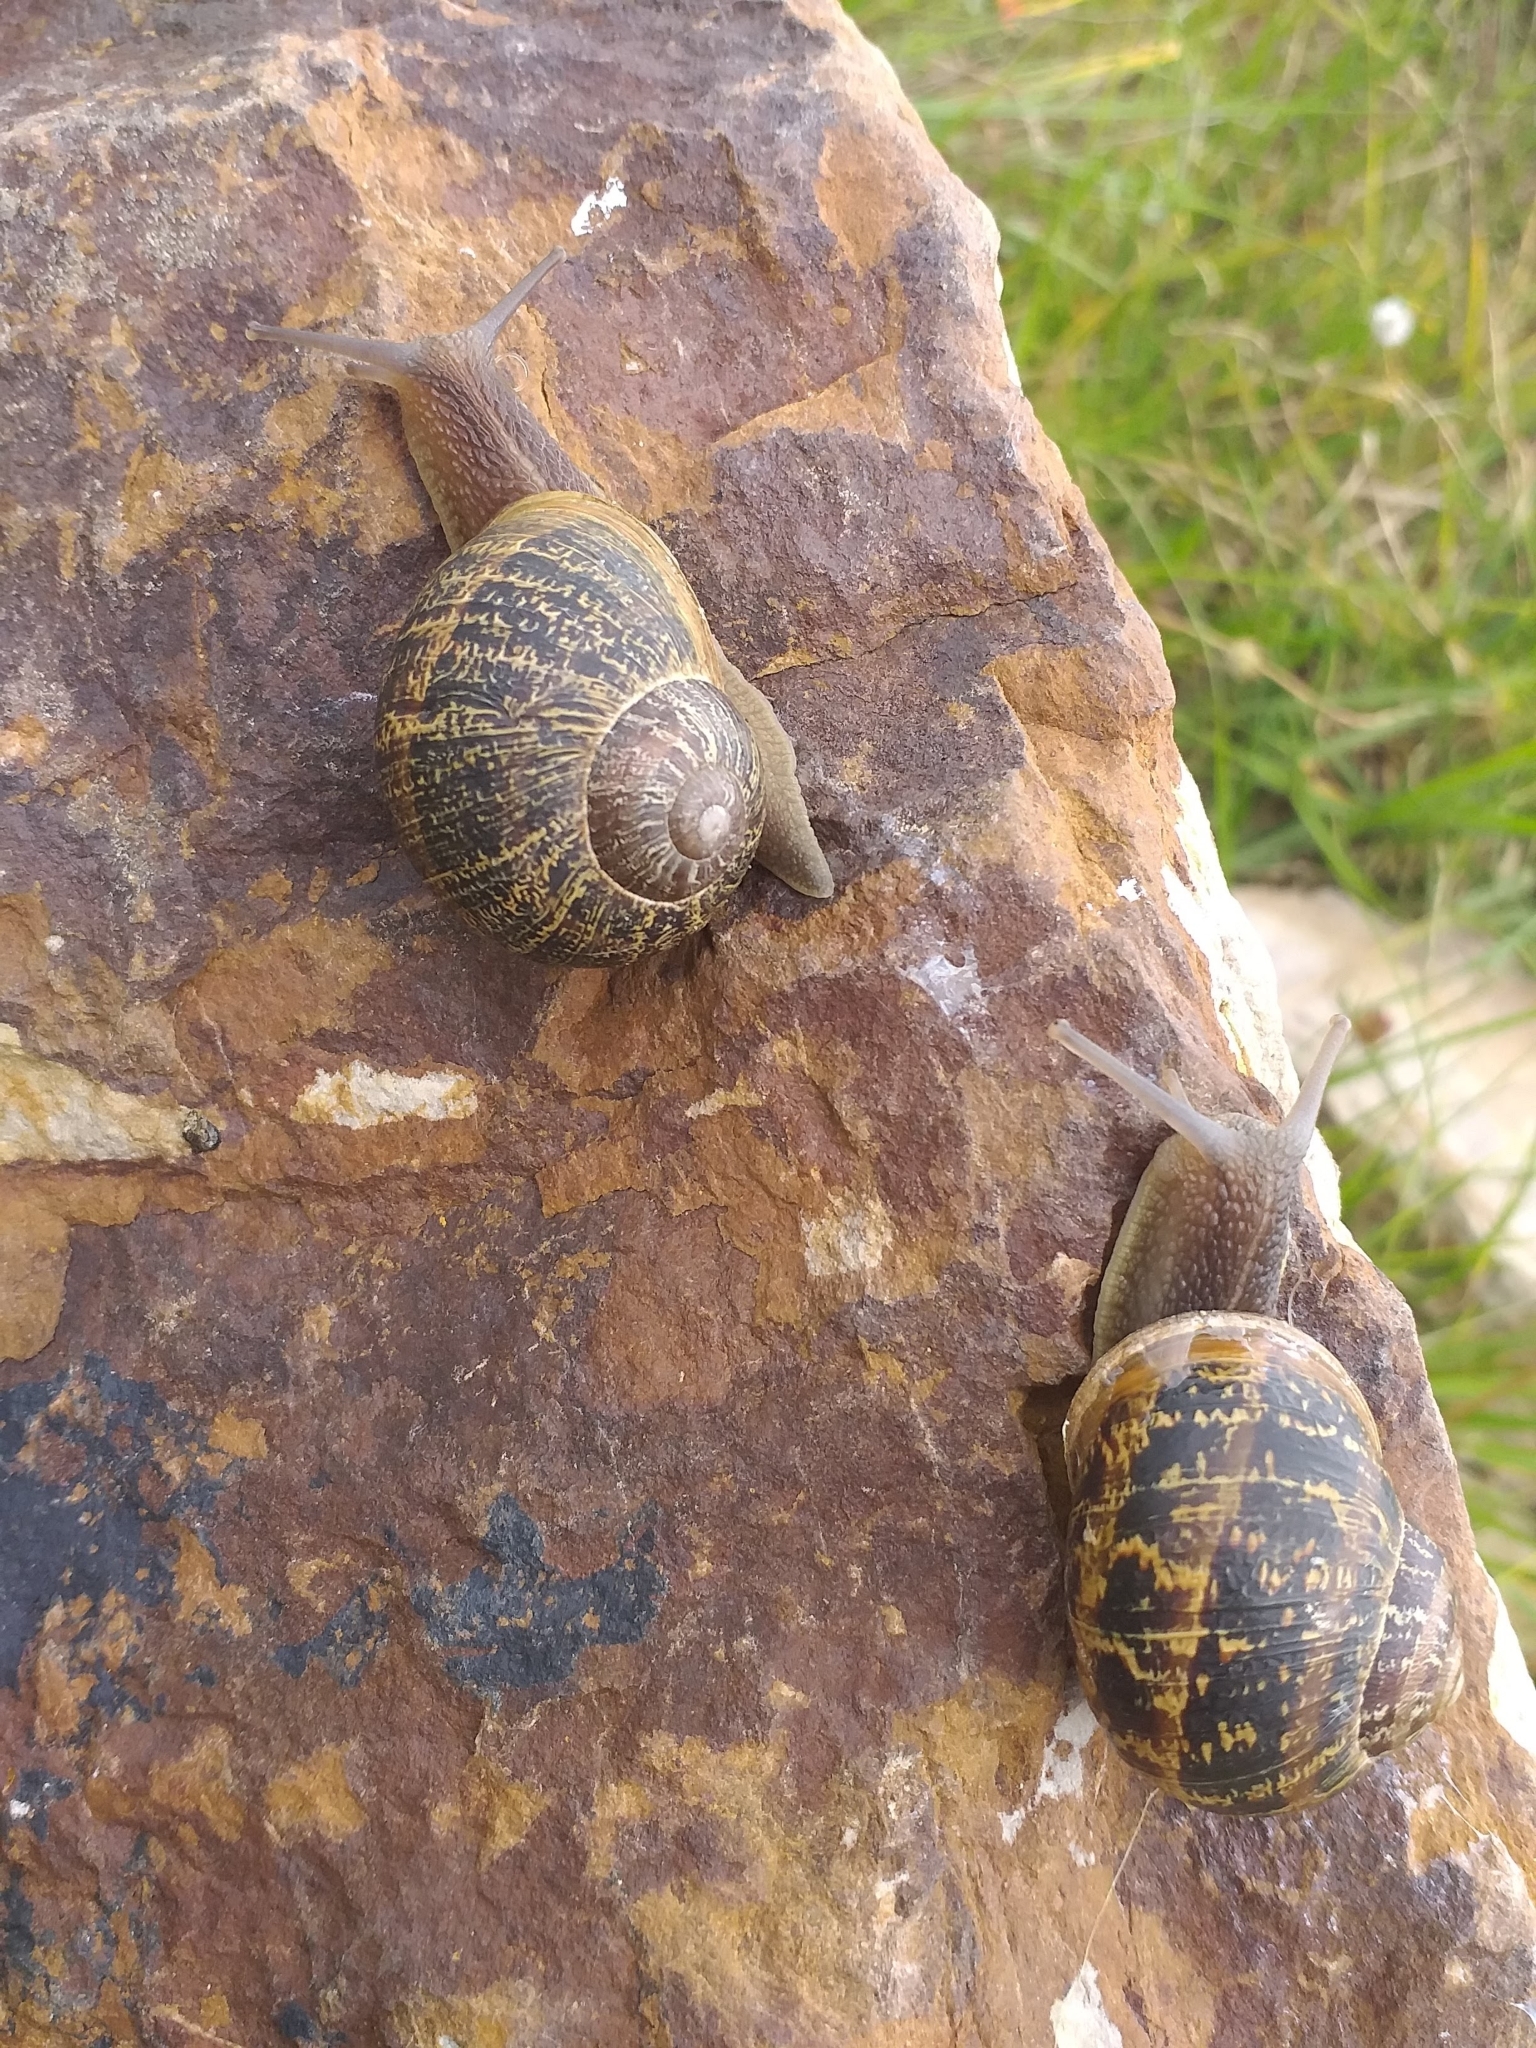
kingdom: Animalia
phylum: Mollusca
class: Gastropoda
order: Stylommatophora
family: Helicidae
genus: Cornu
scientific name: Cornu aspersum
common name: Brown garden snail
